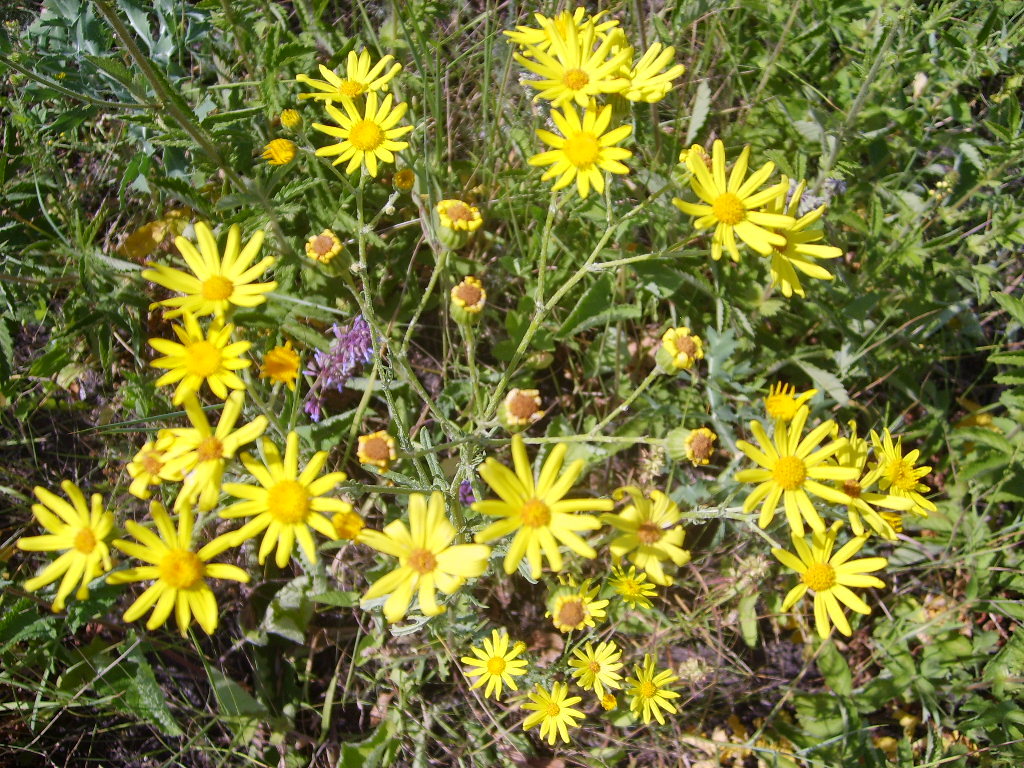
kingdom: Plantae
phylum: Tracheophyta
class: Magnoliopsida
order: Asterales
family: Asteraceae
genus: Senecio
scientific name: Senecio vernalis
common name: Eastern groundsel
